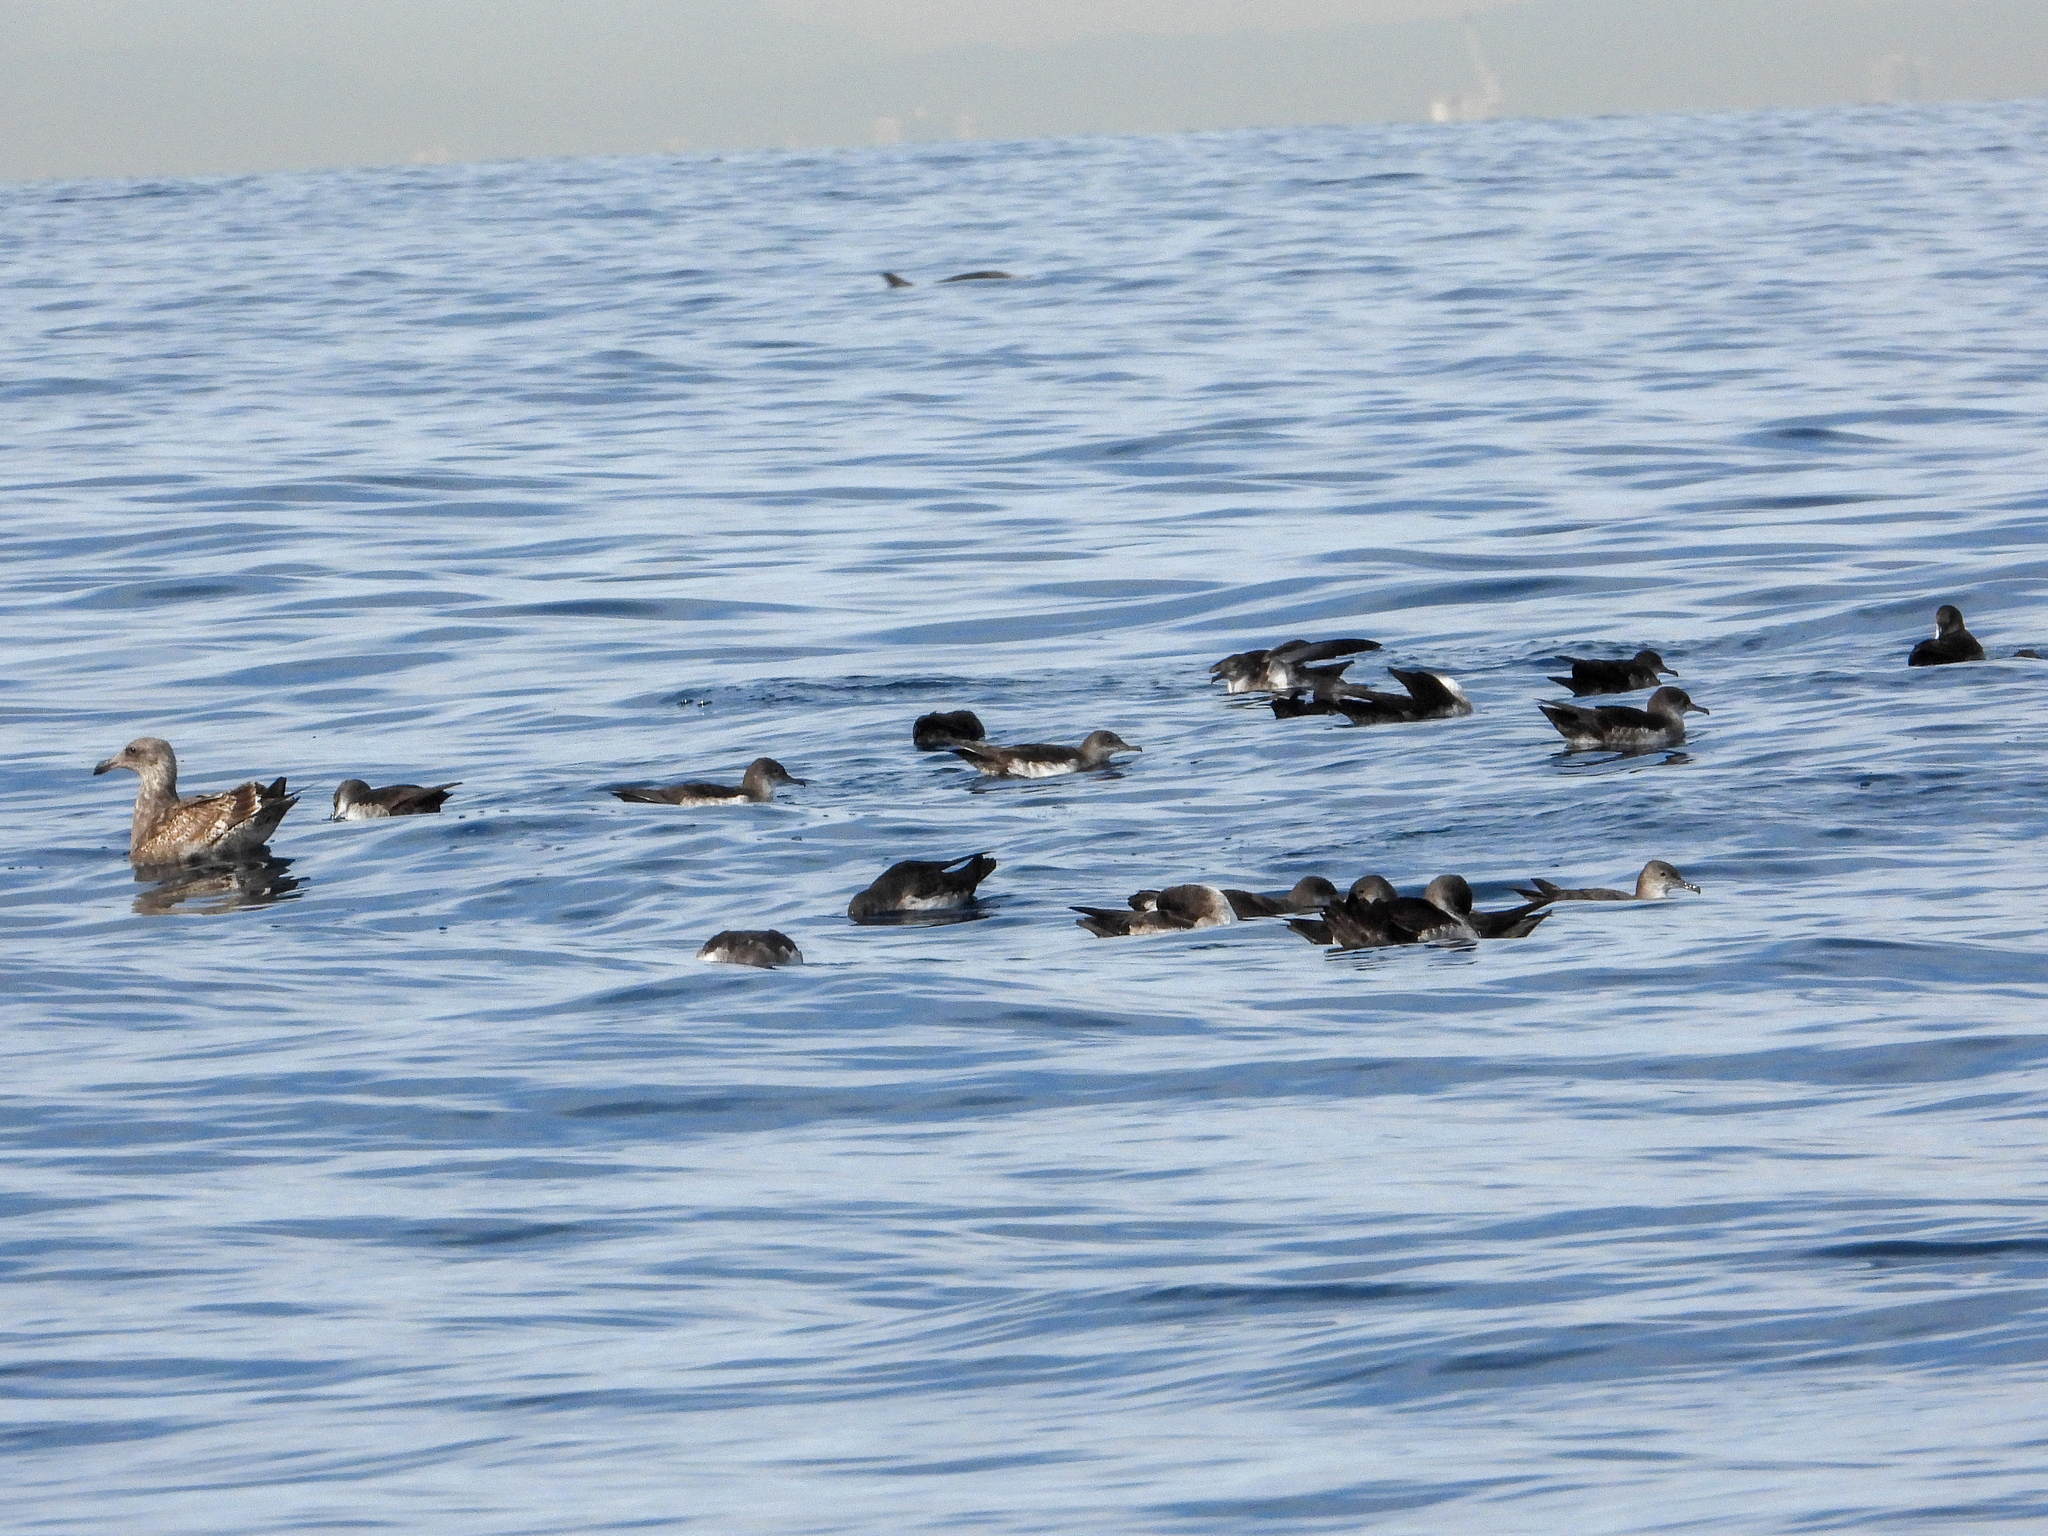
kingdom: Animalia
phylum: Chordata
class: Aves
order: Procellariiformes
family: Procellariidae
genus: Puffinus
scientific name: Puffinus opisthomelas
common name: Black-vented shearwater
